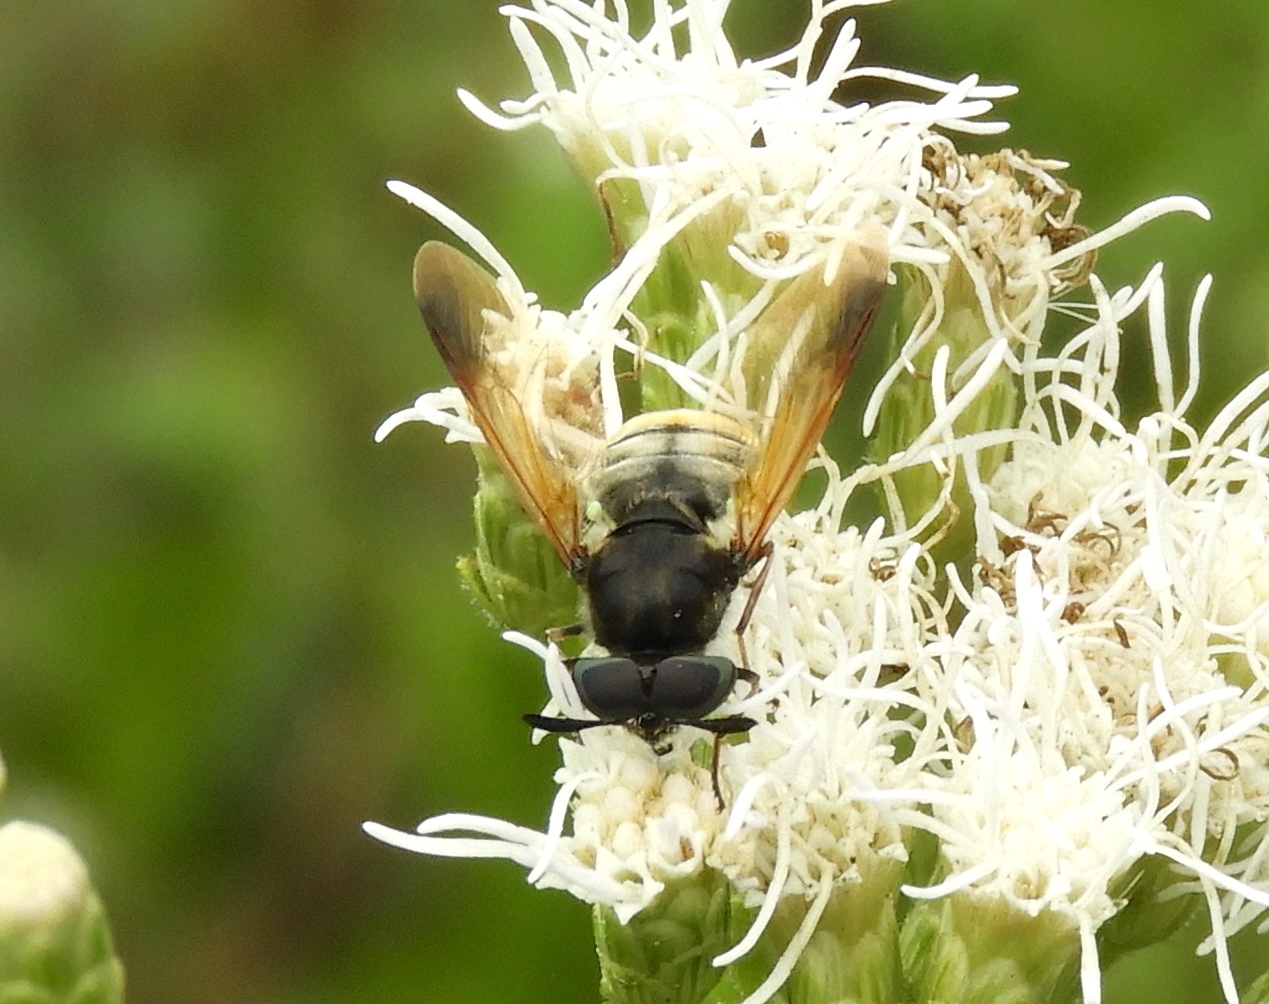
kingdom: Animalia
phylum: Arthropoda
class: Insecta
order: Diptera
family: Stratiomyidae
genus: Hoplitimyia
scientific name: Hoplitimyia mutabilis
